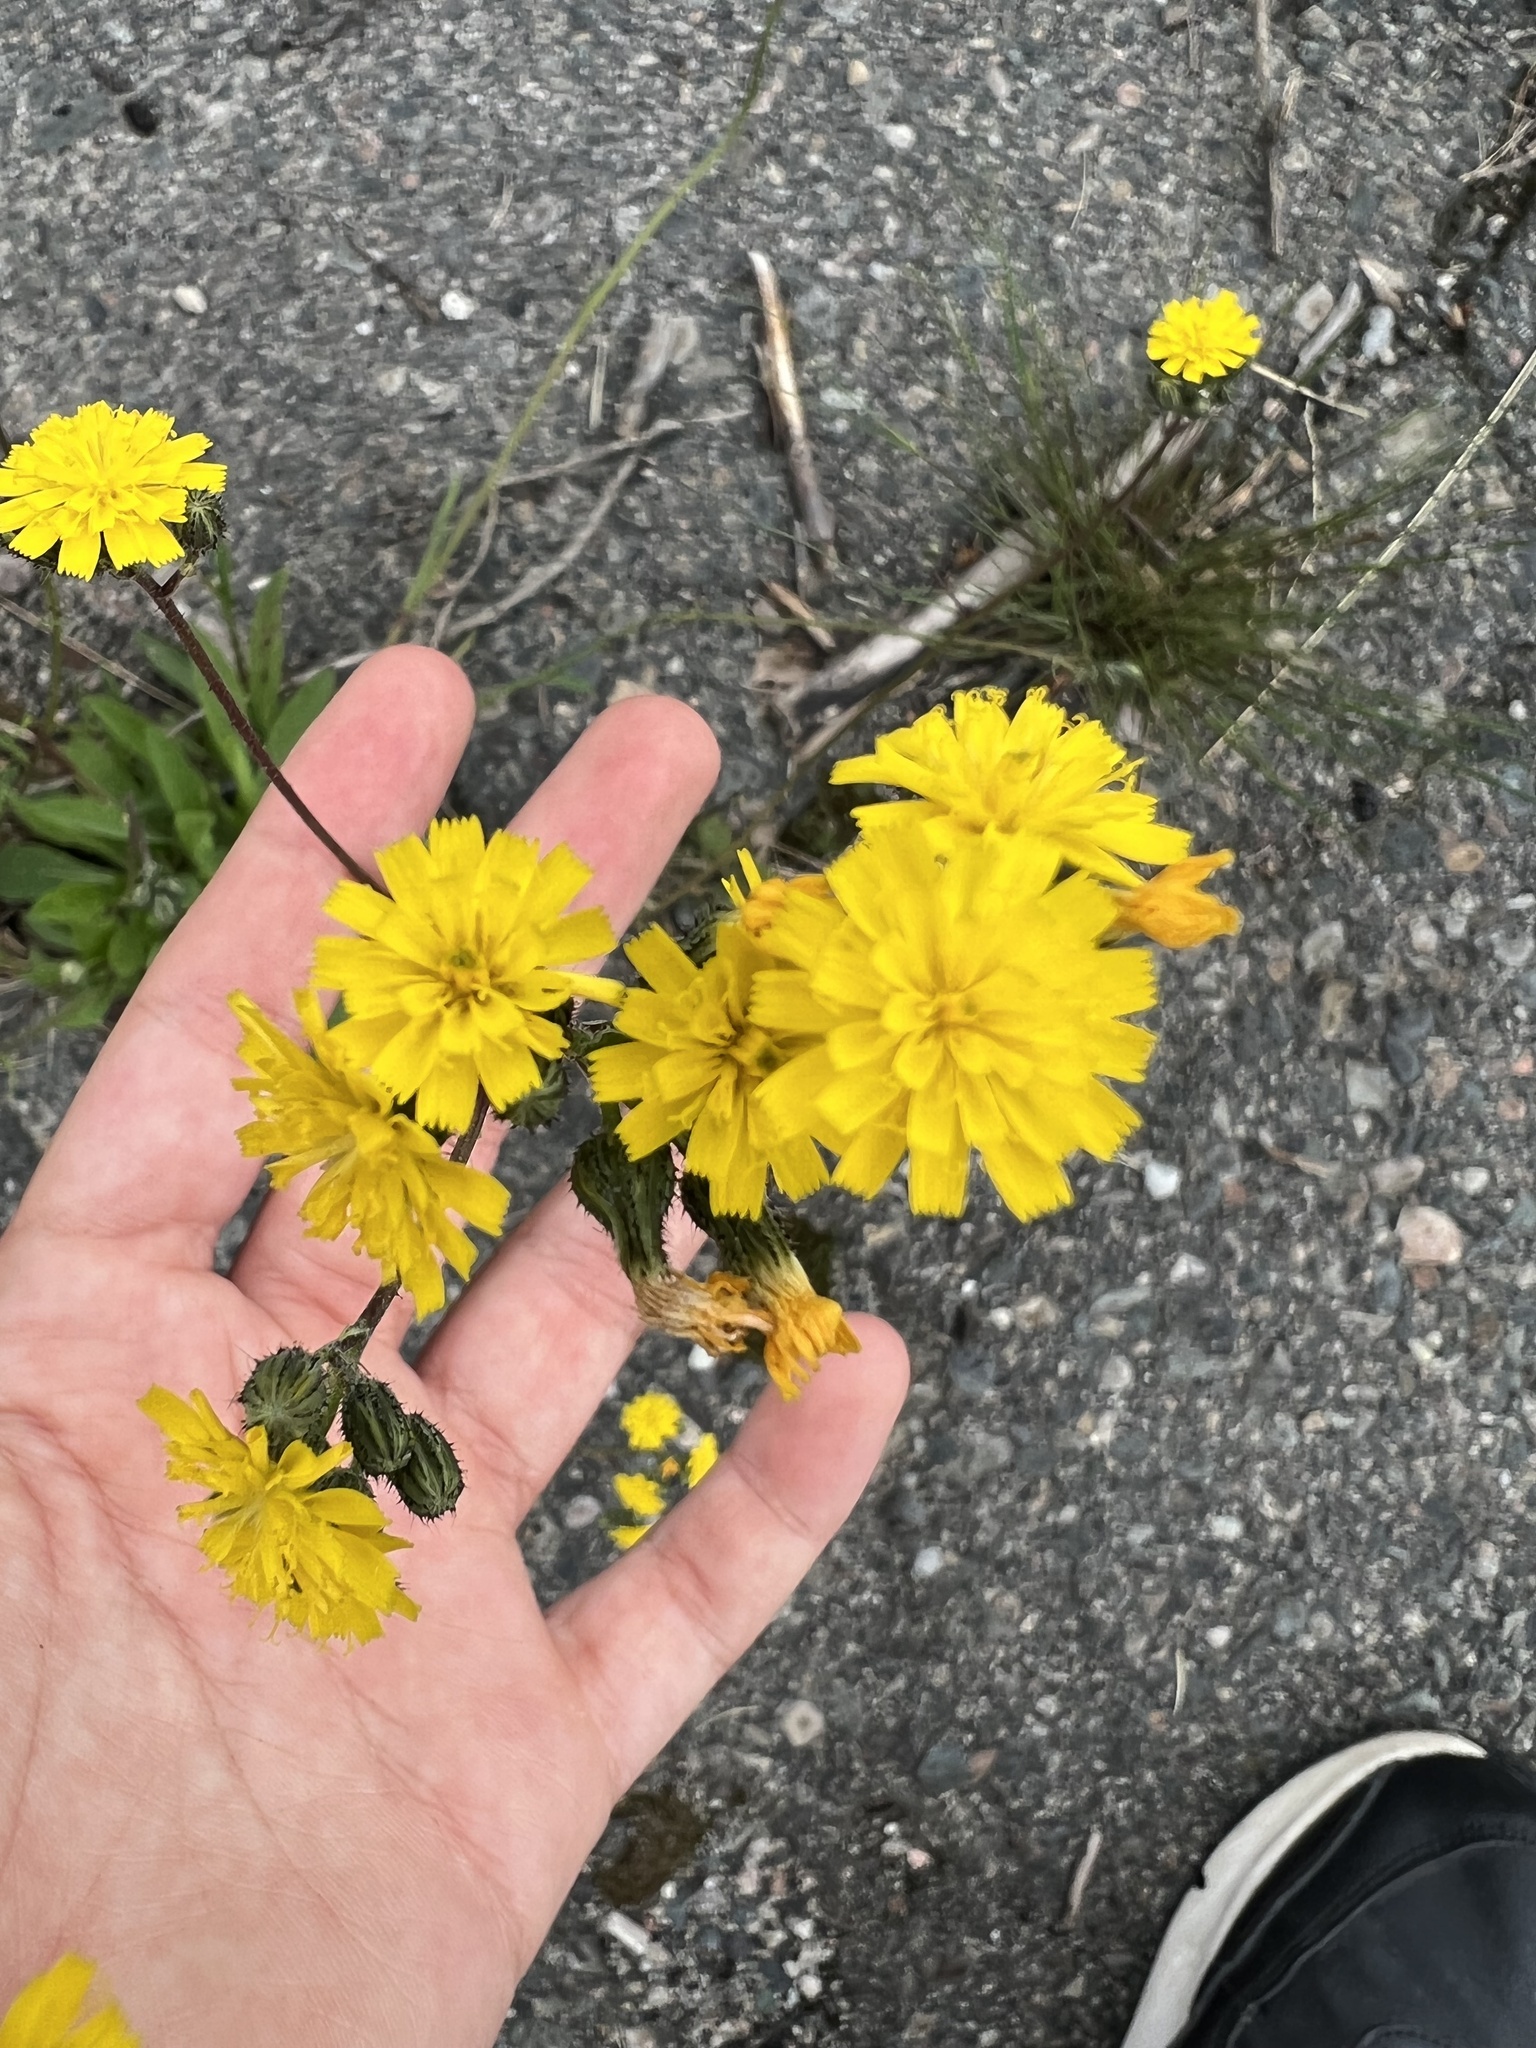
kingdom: Plantae
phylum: Tracheophyta
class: Magnoliopsida
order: Asterales
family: Asteraceae
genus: Pilosella
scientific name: Pilosella piloselloides
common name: Glaucous king-devil
